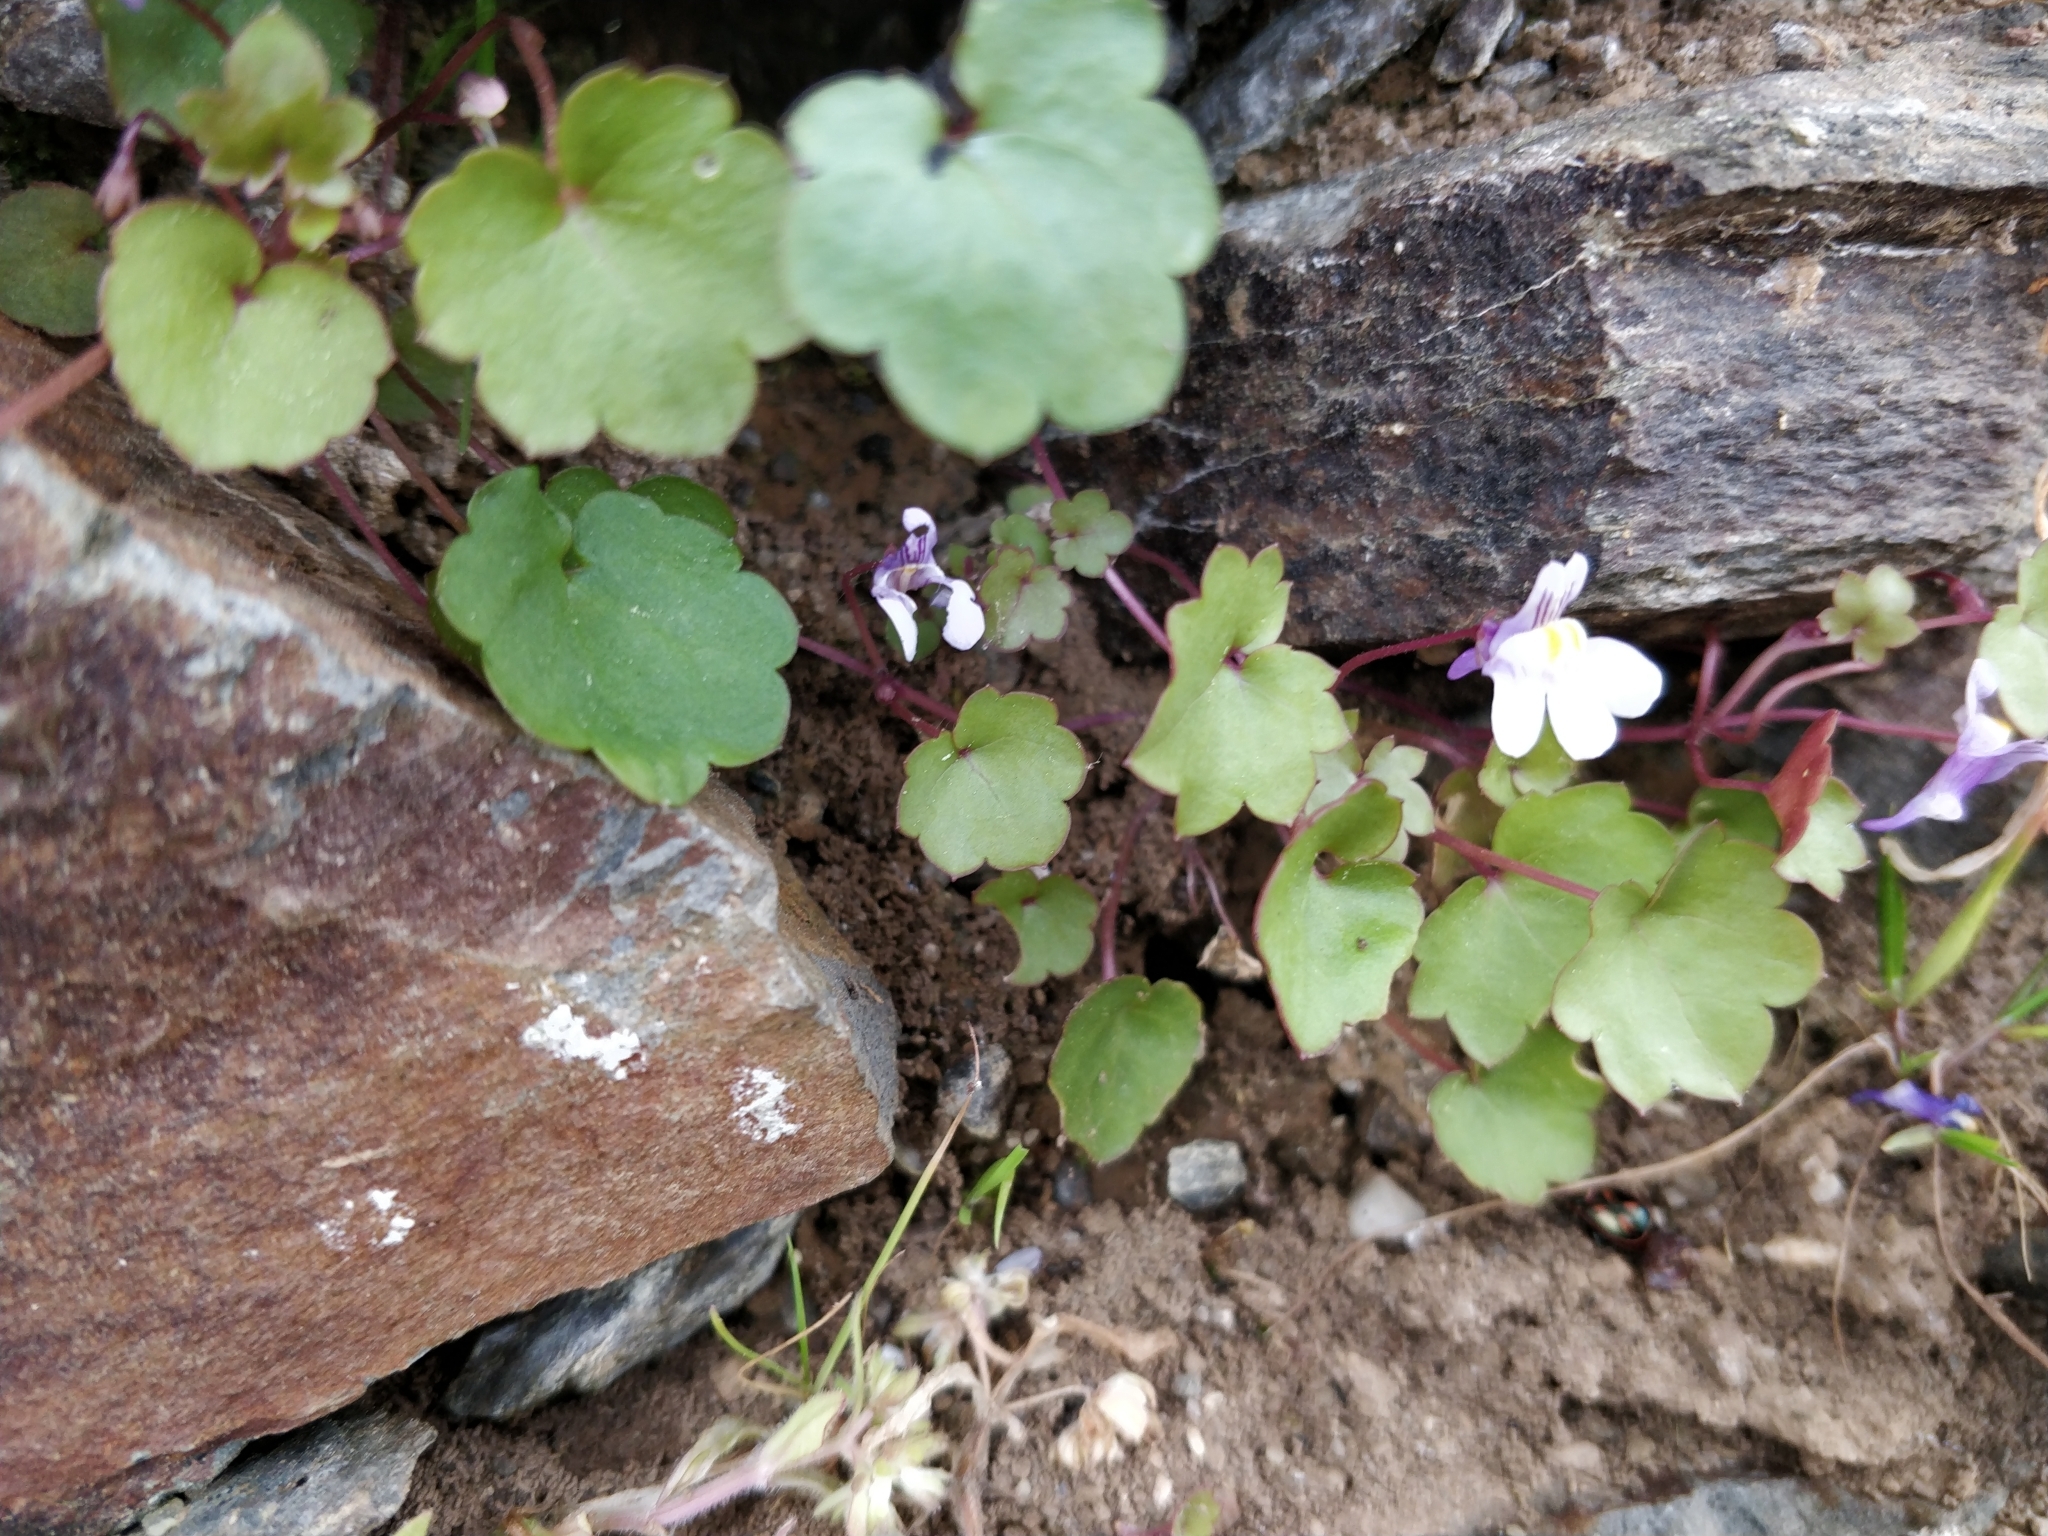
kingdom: Plantae
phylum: Tracheophyta
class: Magnoliopsida
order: Lamiales
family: Plantaginaceae
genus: Cymbalaria
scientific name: Cymbalaria muralis
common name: Ivy-leaved toadflax
